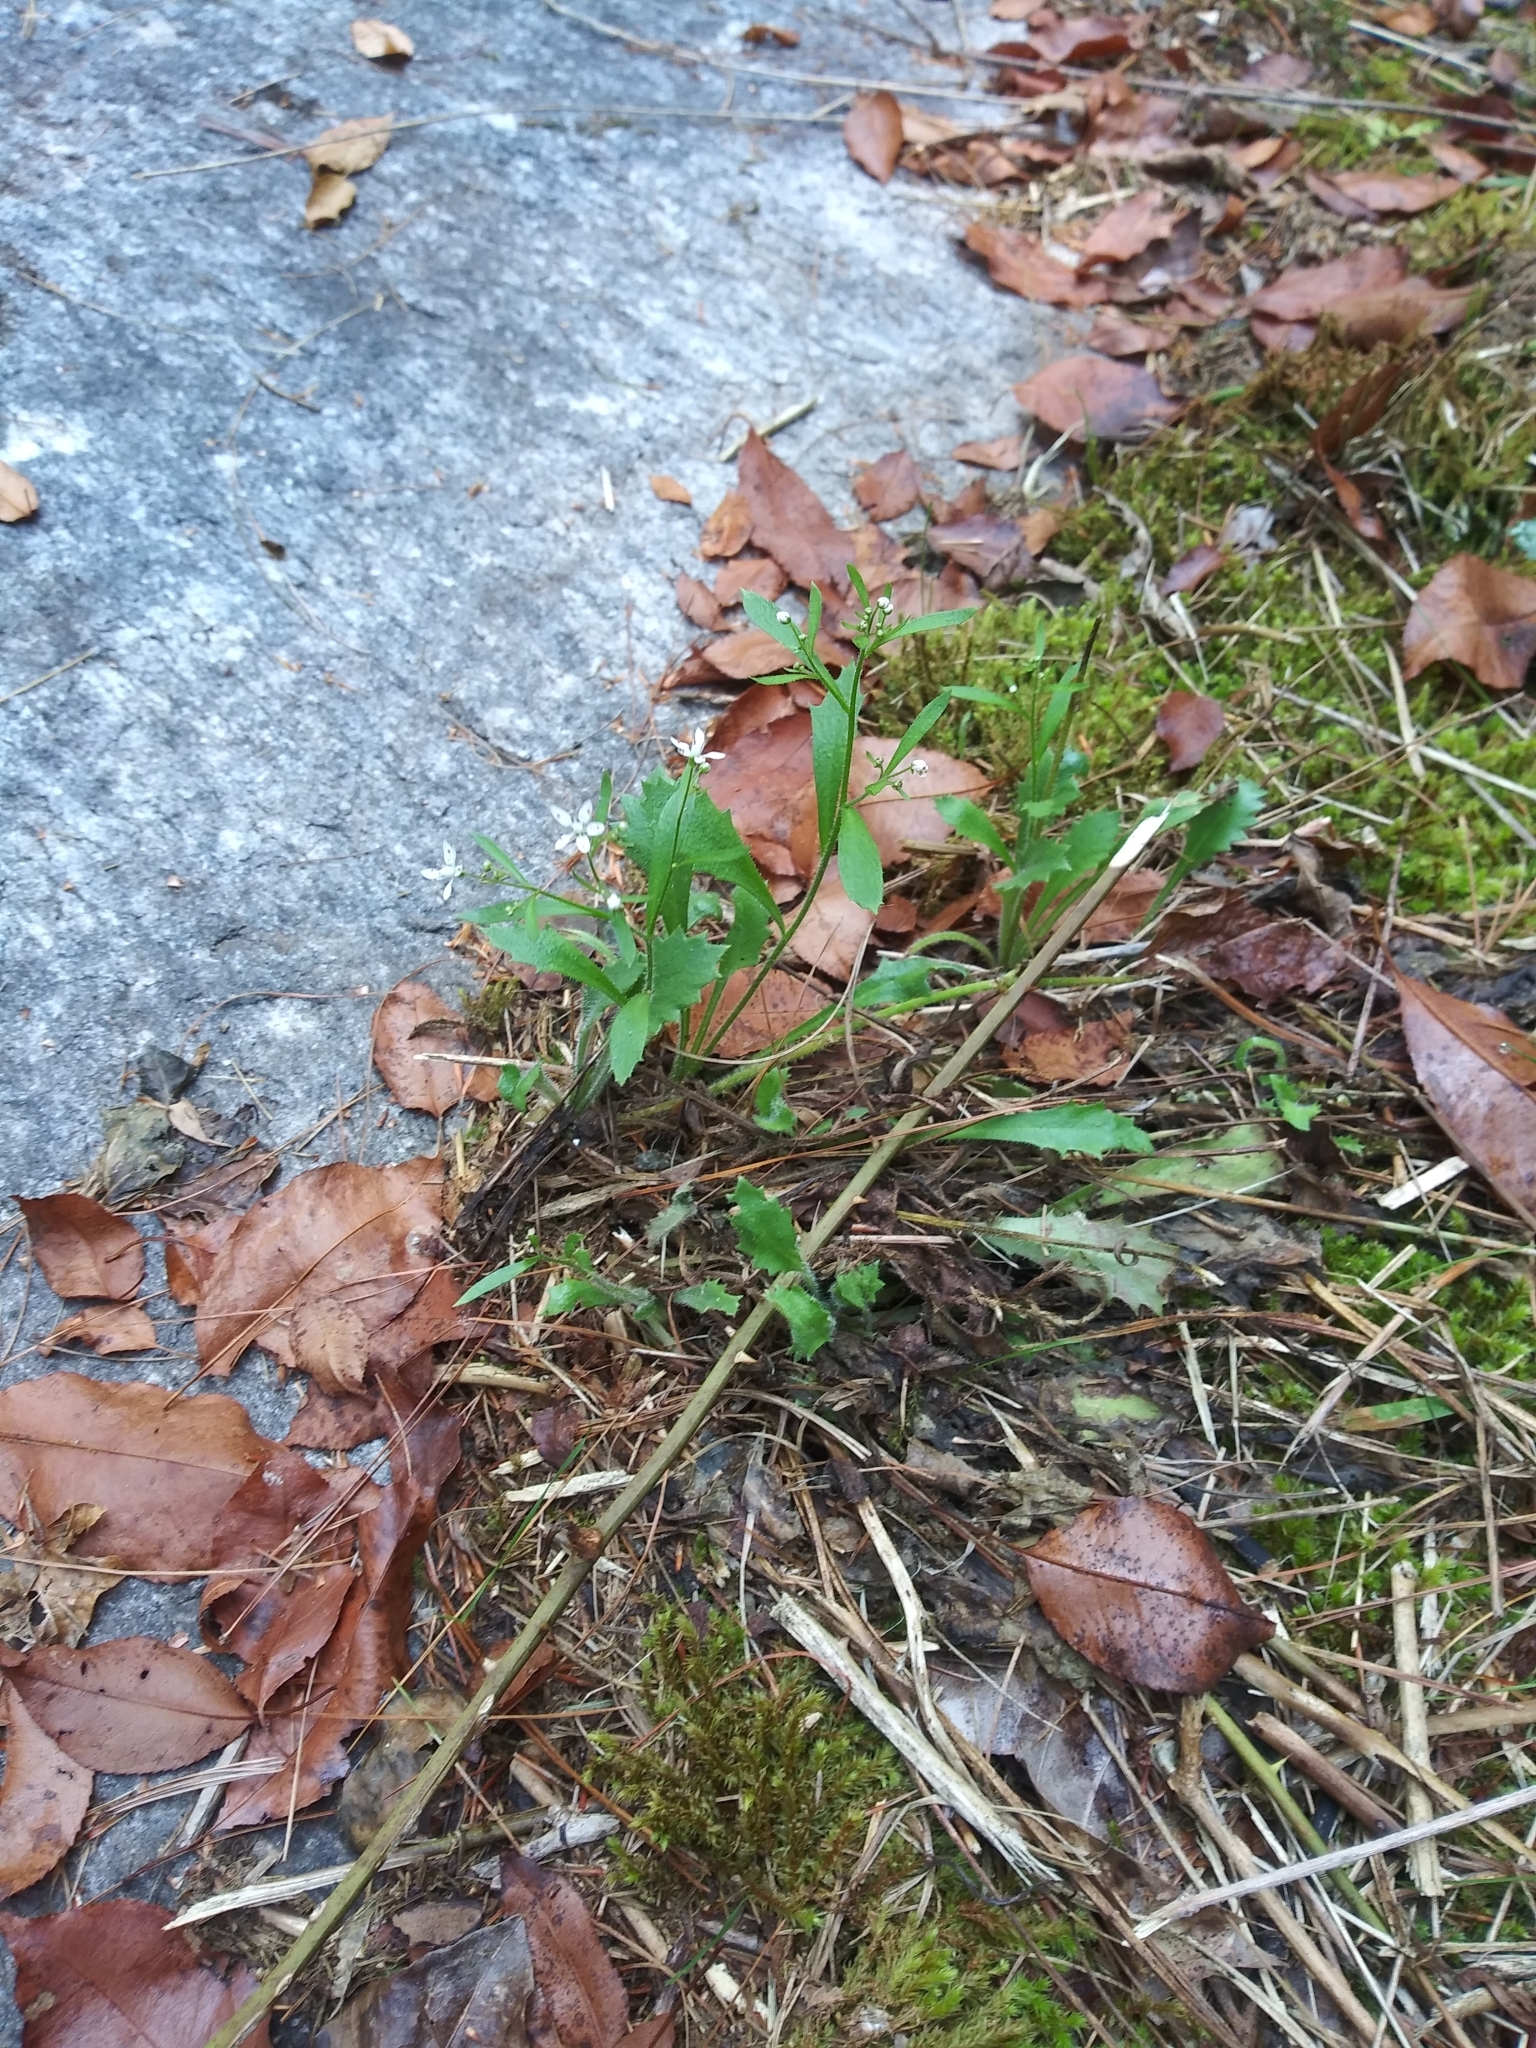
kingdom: Plantae
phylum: Tracheophyta
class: Magnoliopsida
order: Saxifragales
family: Saxifragaceae
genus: Micranthes
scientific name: Micranthes petiolaris
